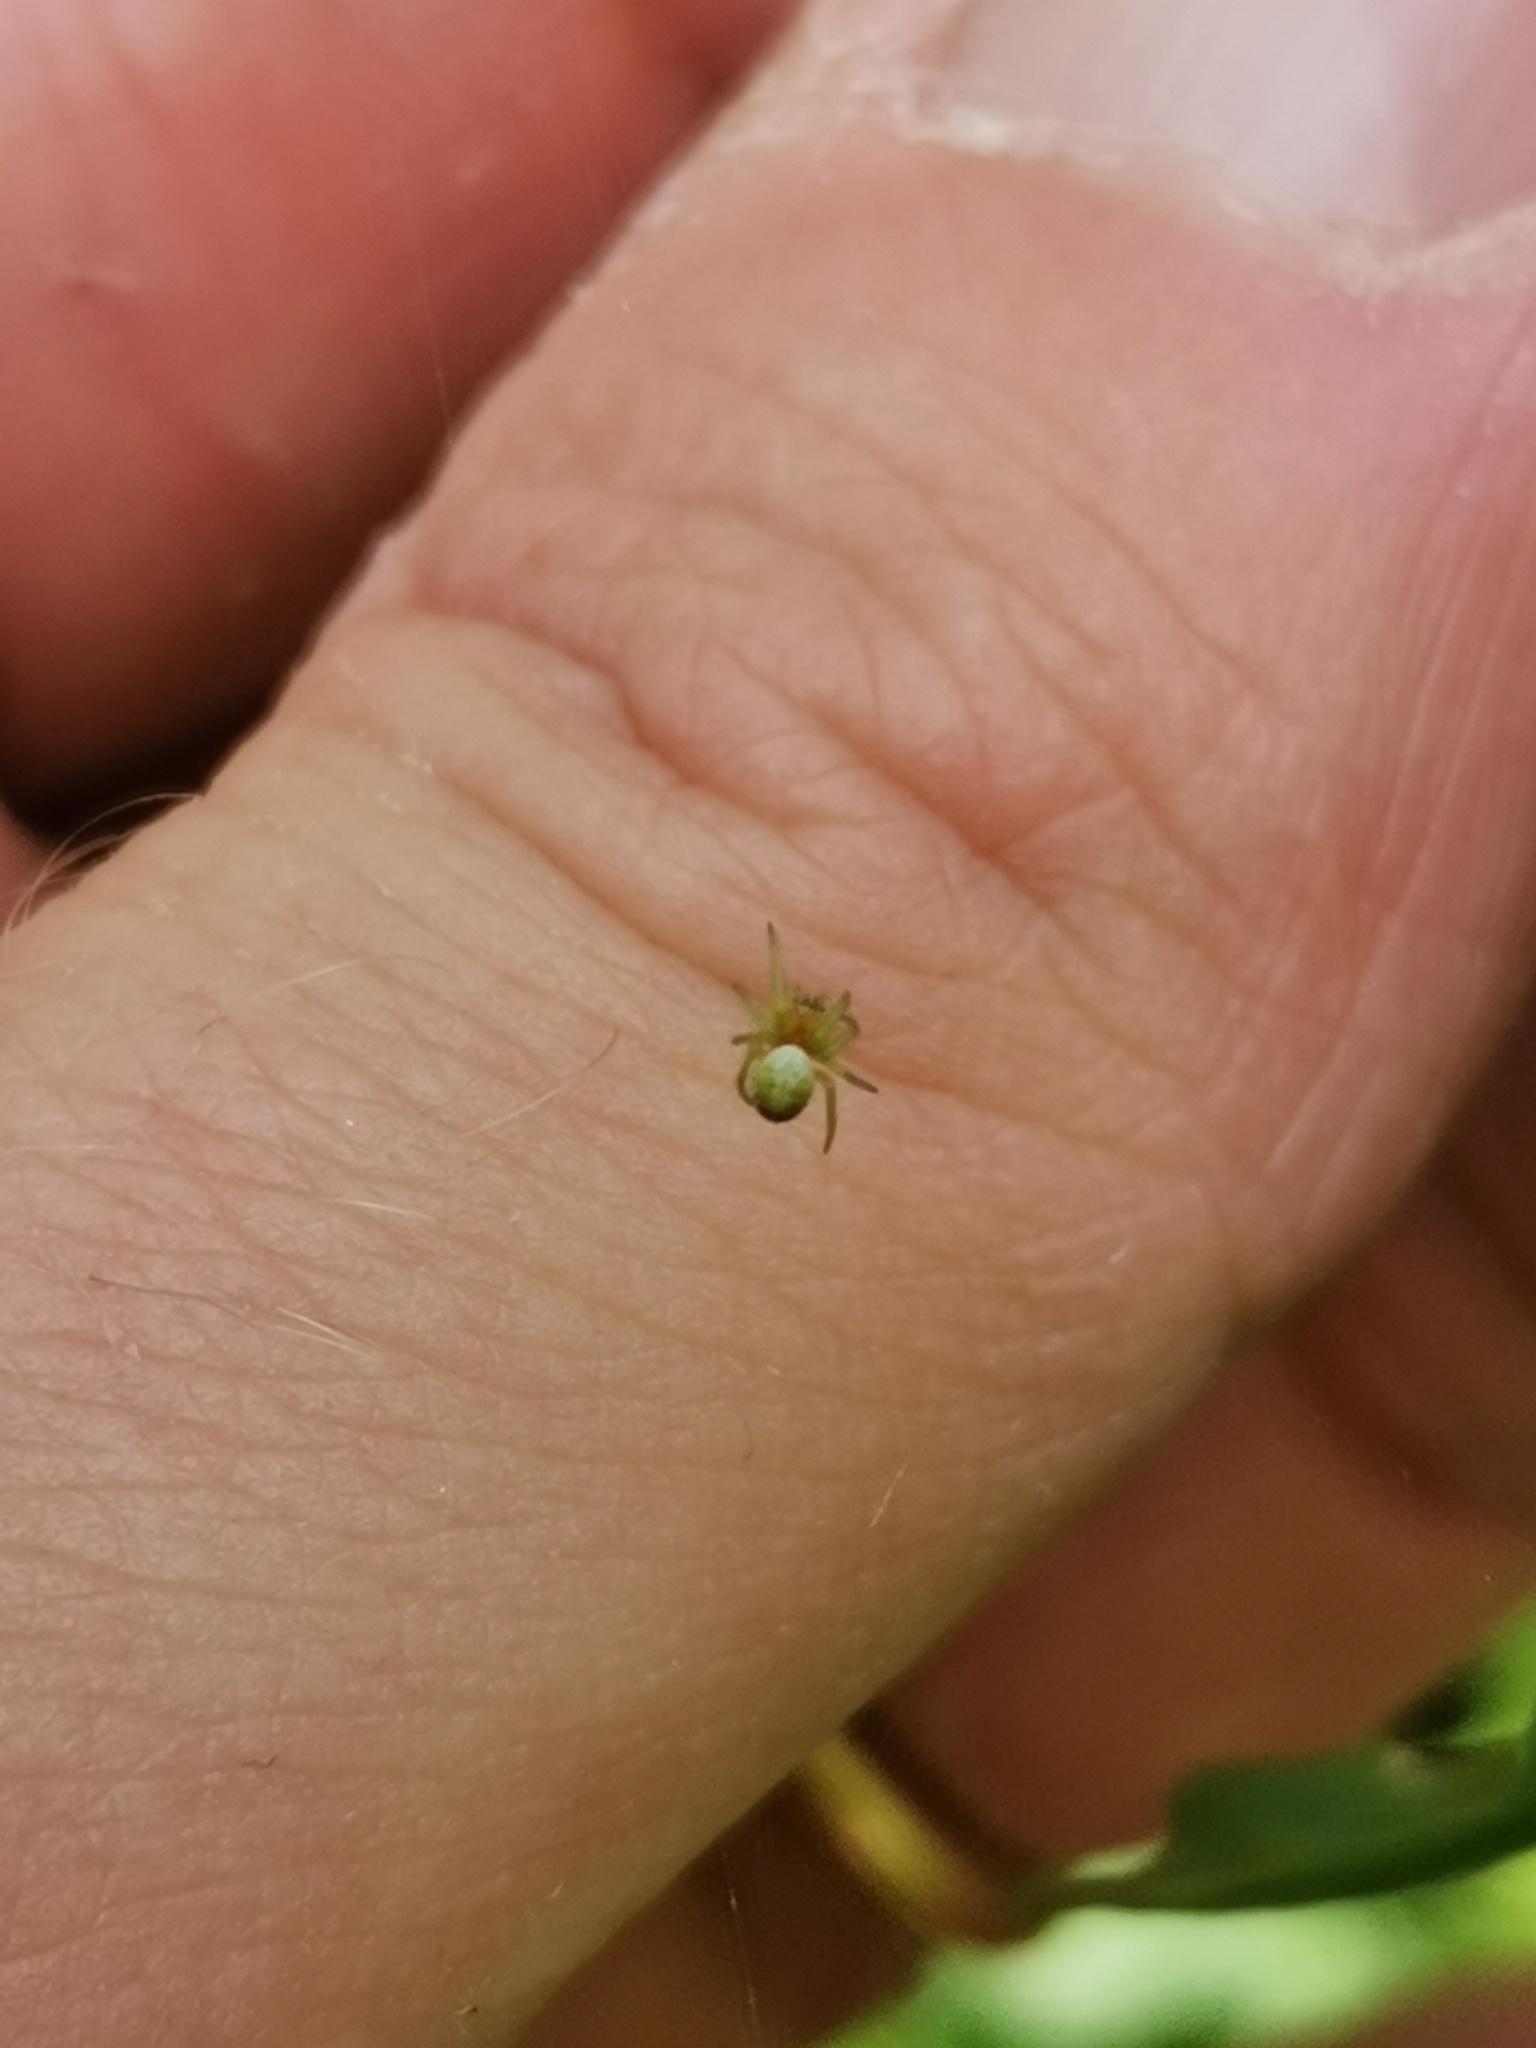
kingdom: Animalia
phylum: Arthropoda
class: Arachnida
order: Araneae
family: Araneidae
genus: Araniella
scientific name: Araniella
